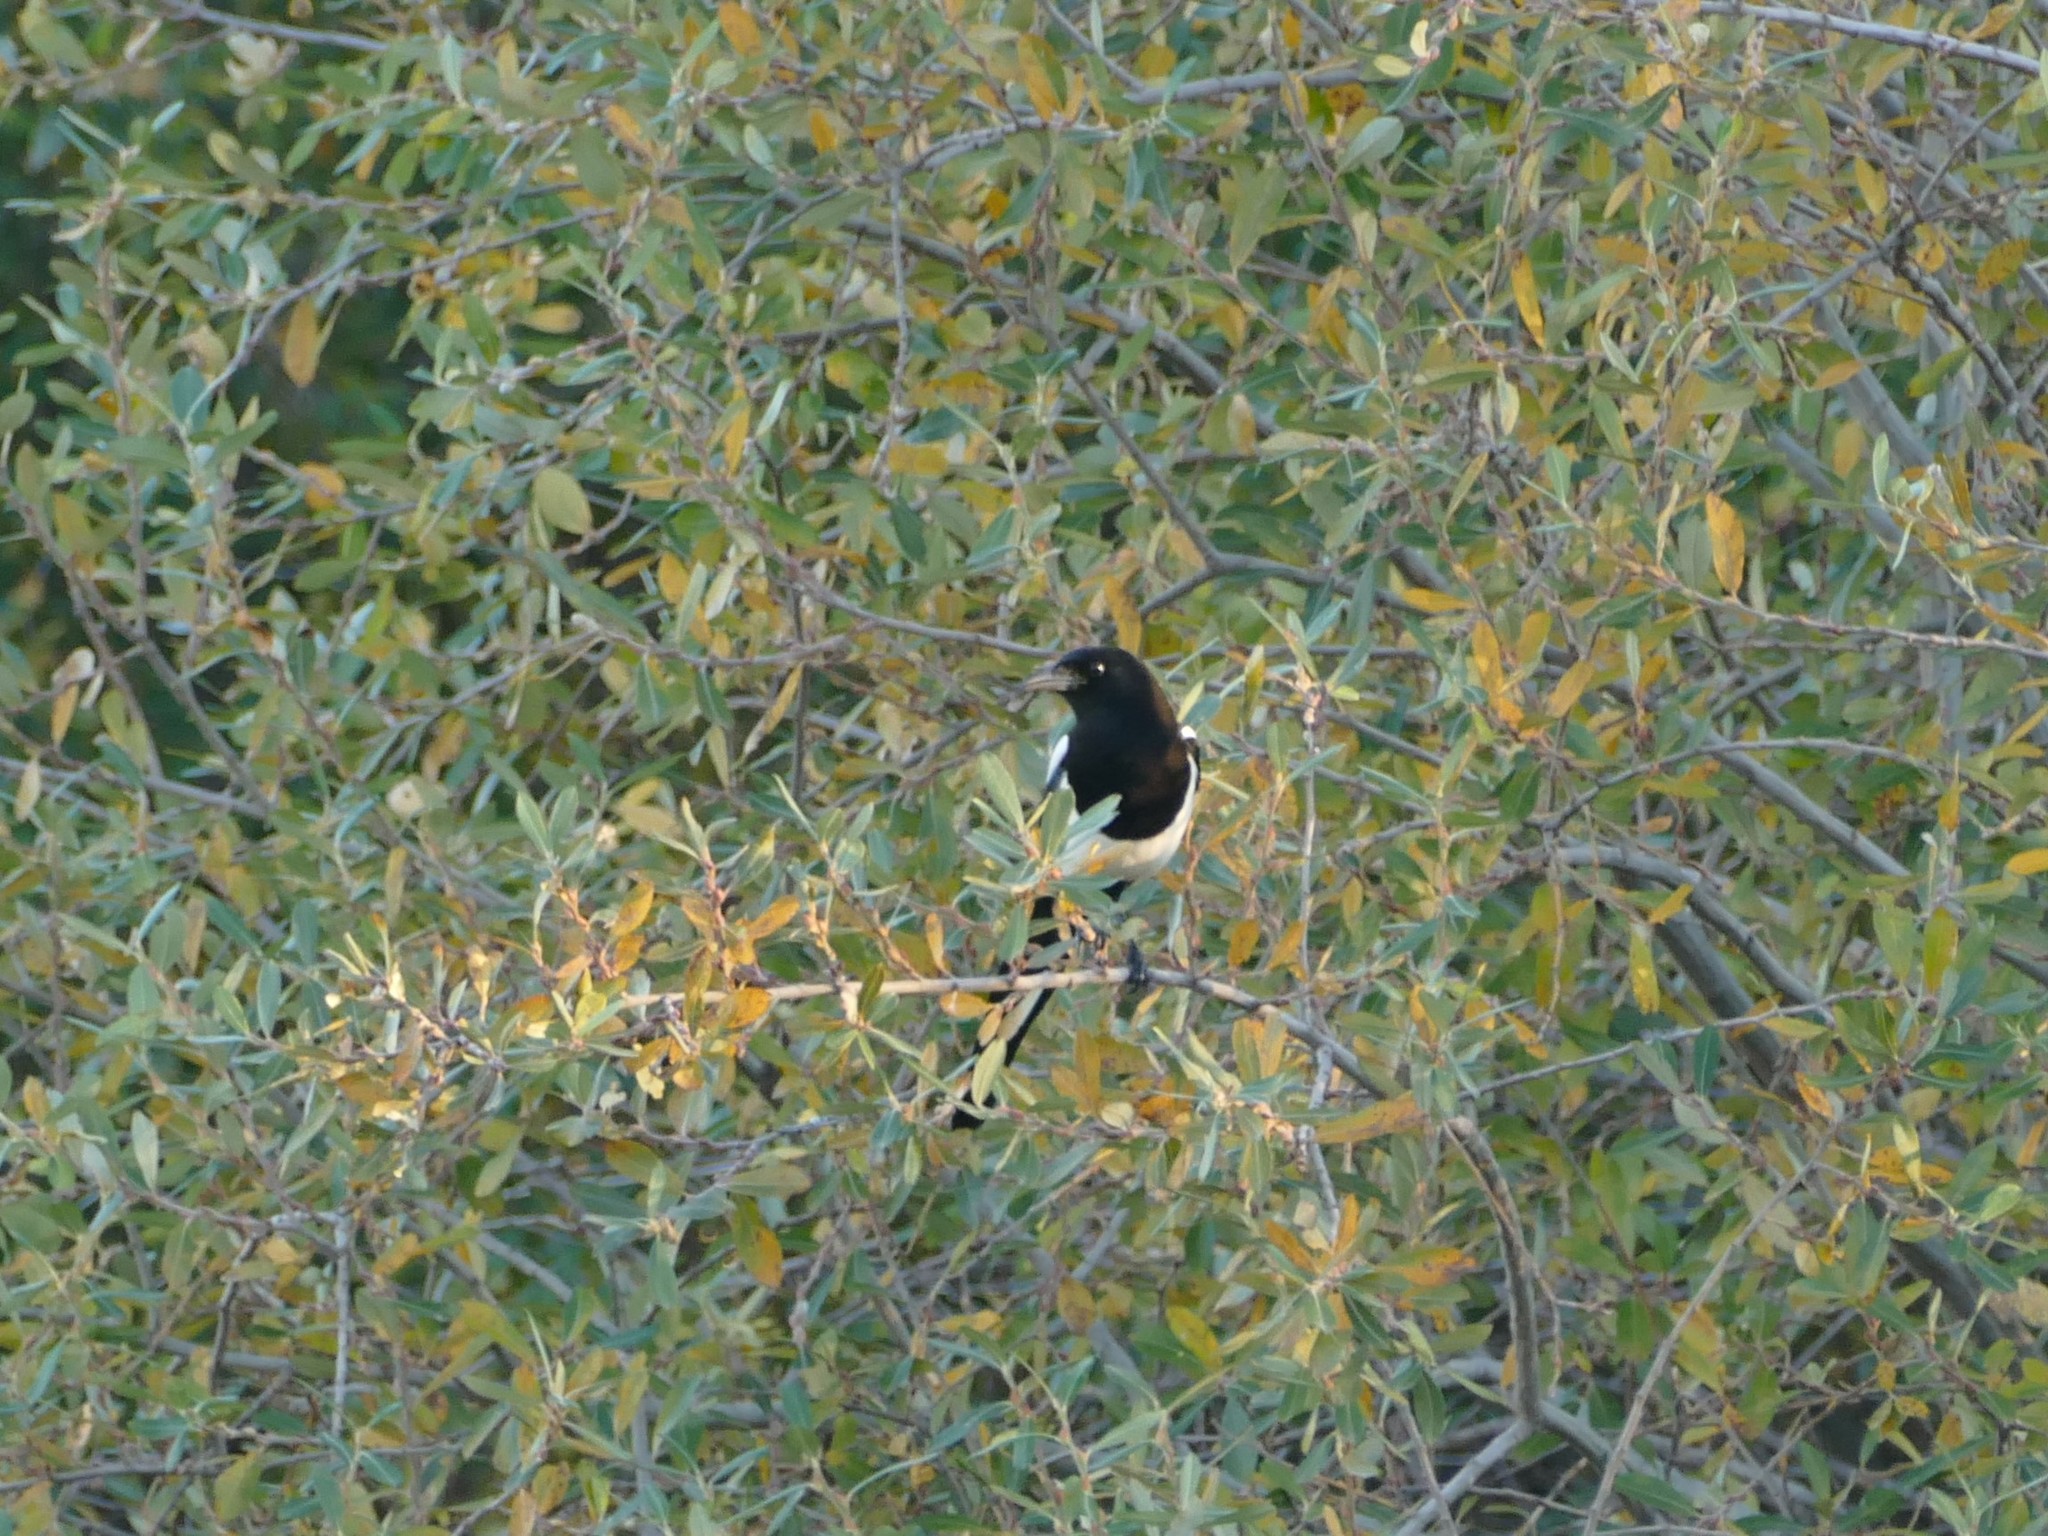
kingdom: Animalia
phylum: Chordata
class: Aves
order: Passeriformes
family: Corvidae
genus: Pica
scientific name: Pica pica
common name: Eurasian magpie
